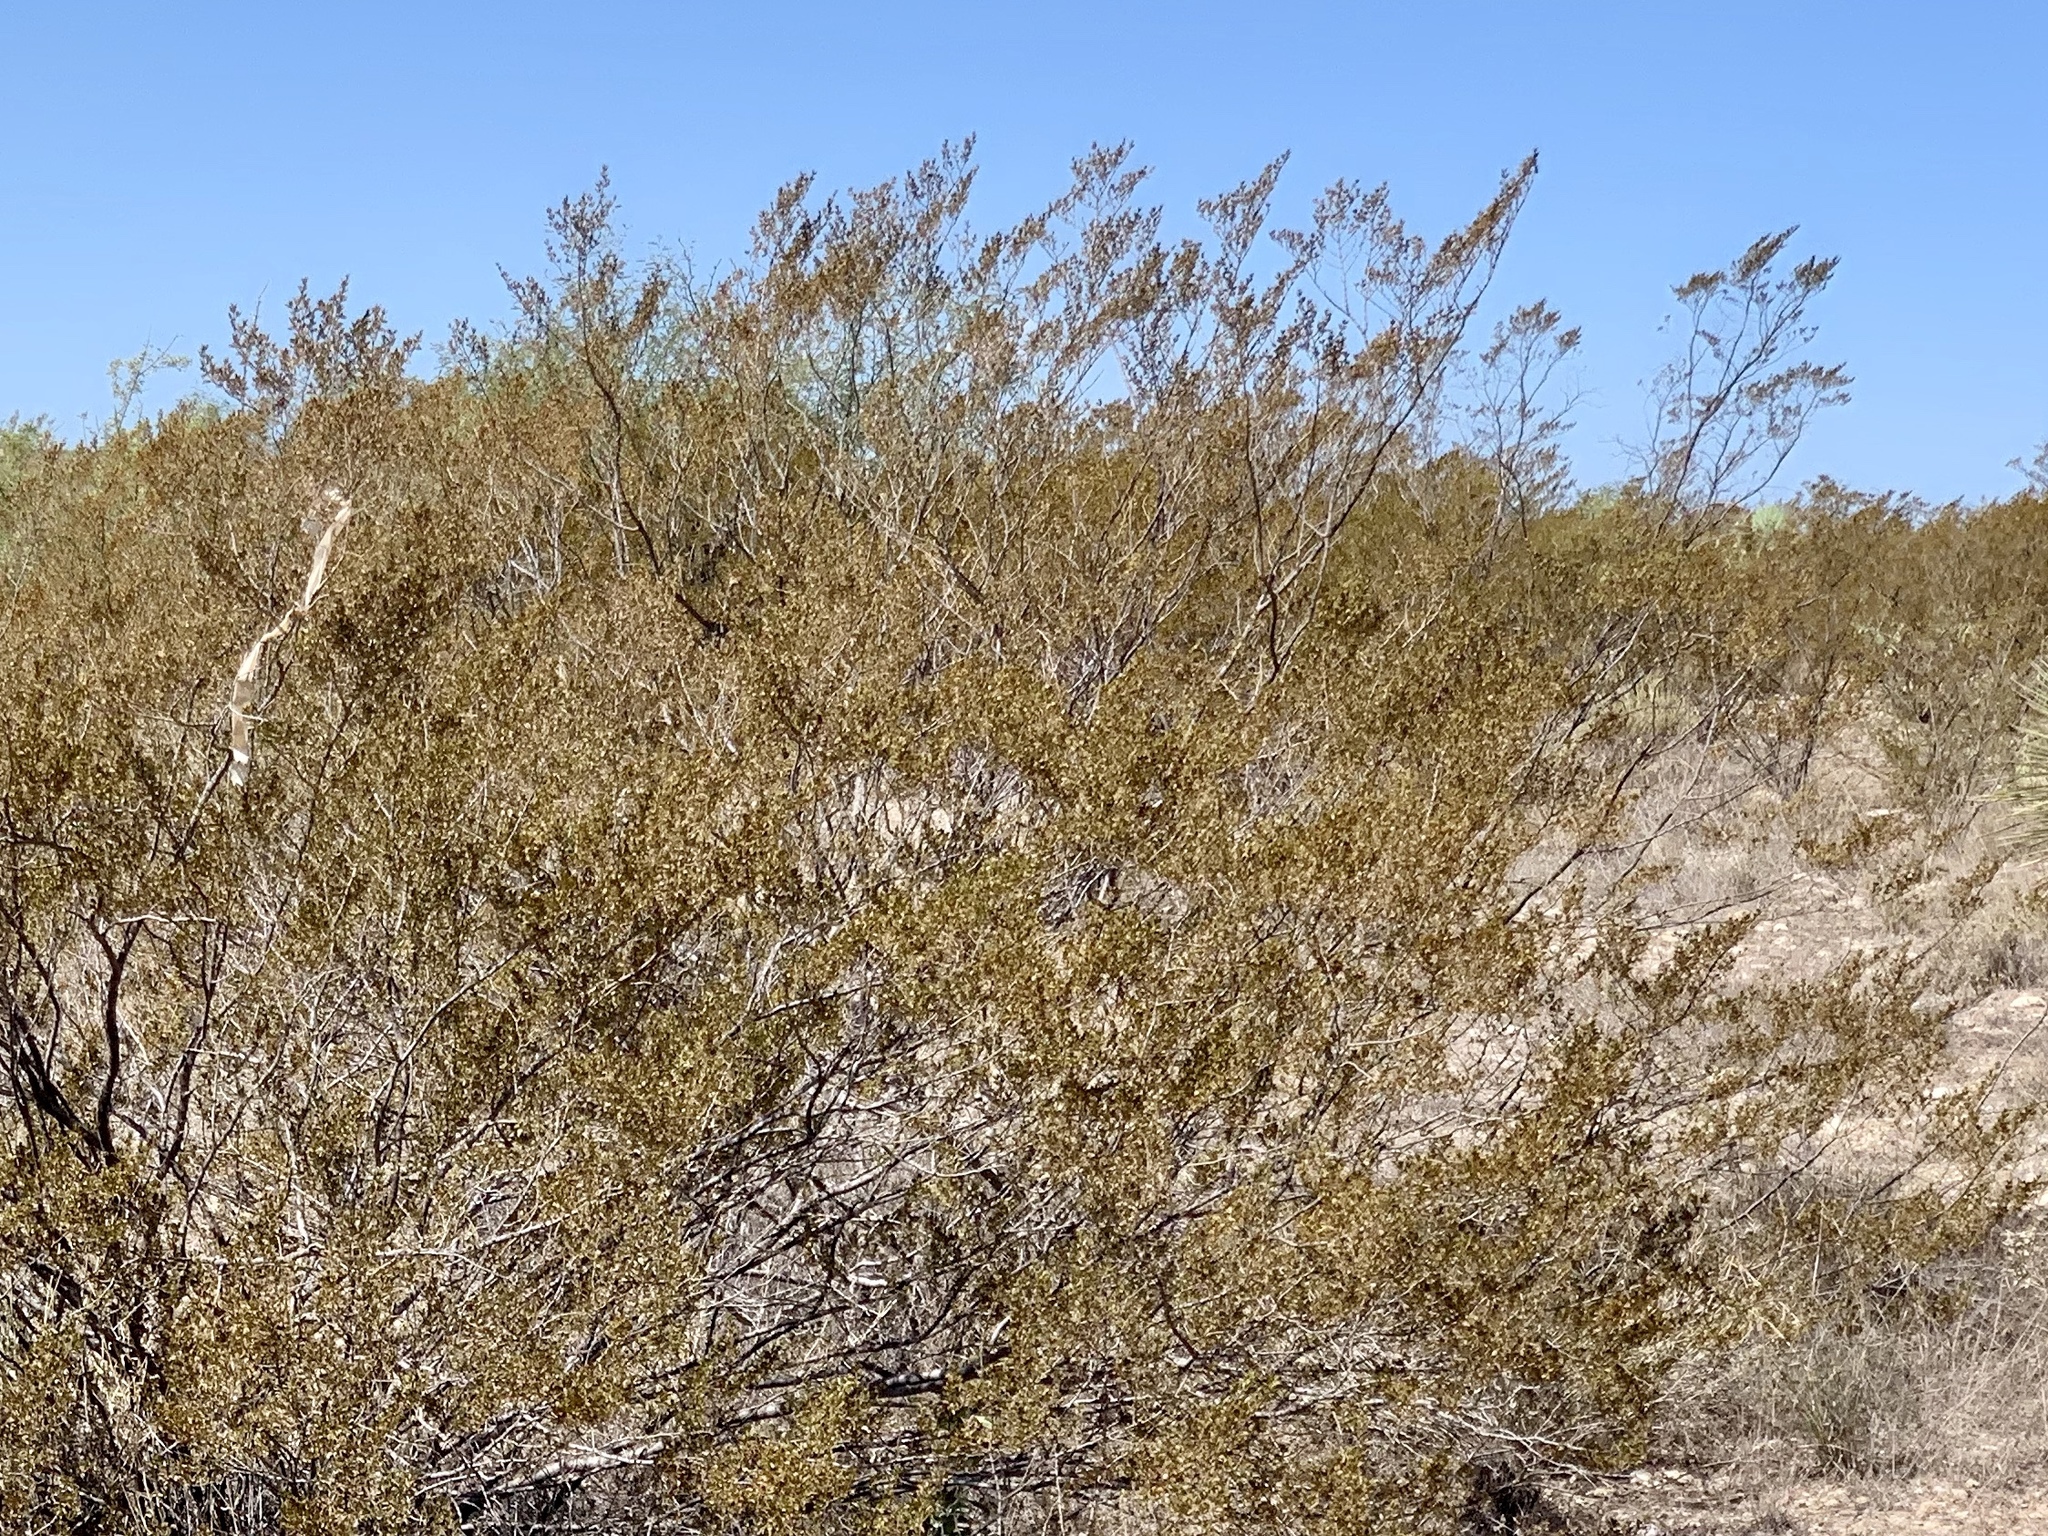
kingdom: Plantae
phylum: Tracheophyta
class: Magnoliopsida
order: Zygophyllales
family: Zygophyllaceae
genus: Larrea
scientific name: Larrea tridentata
